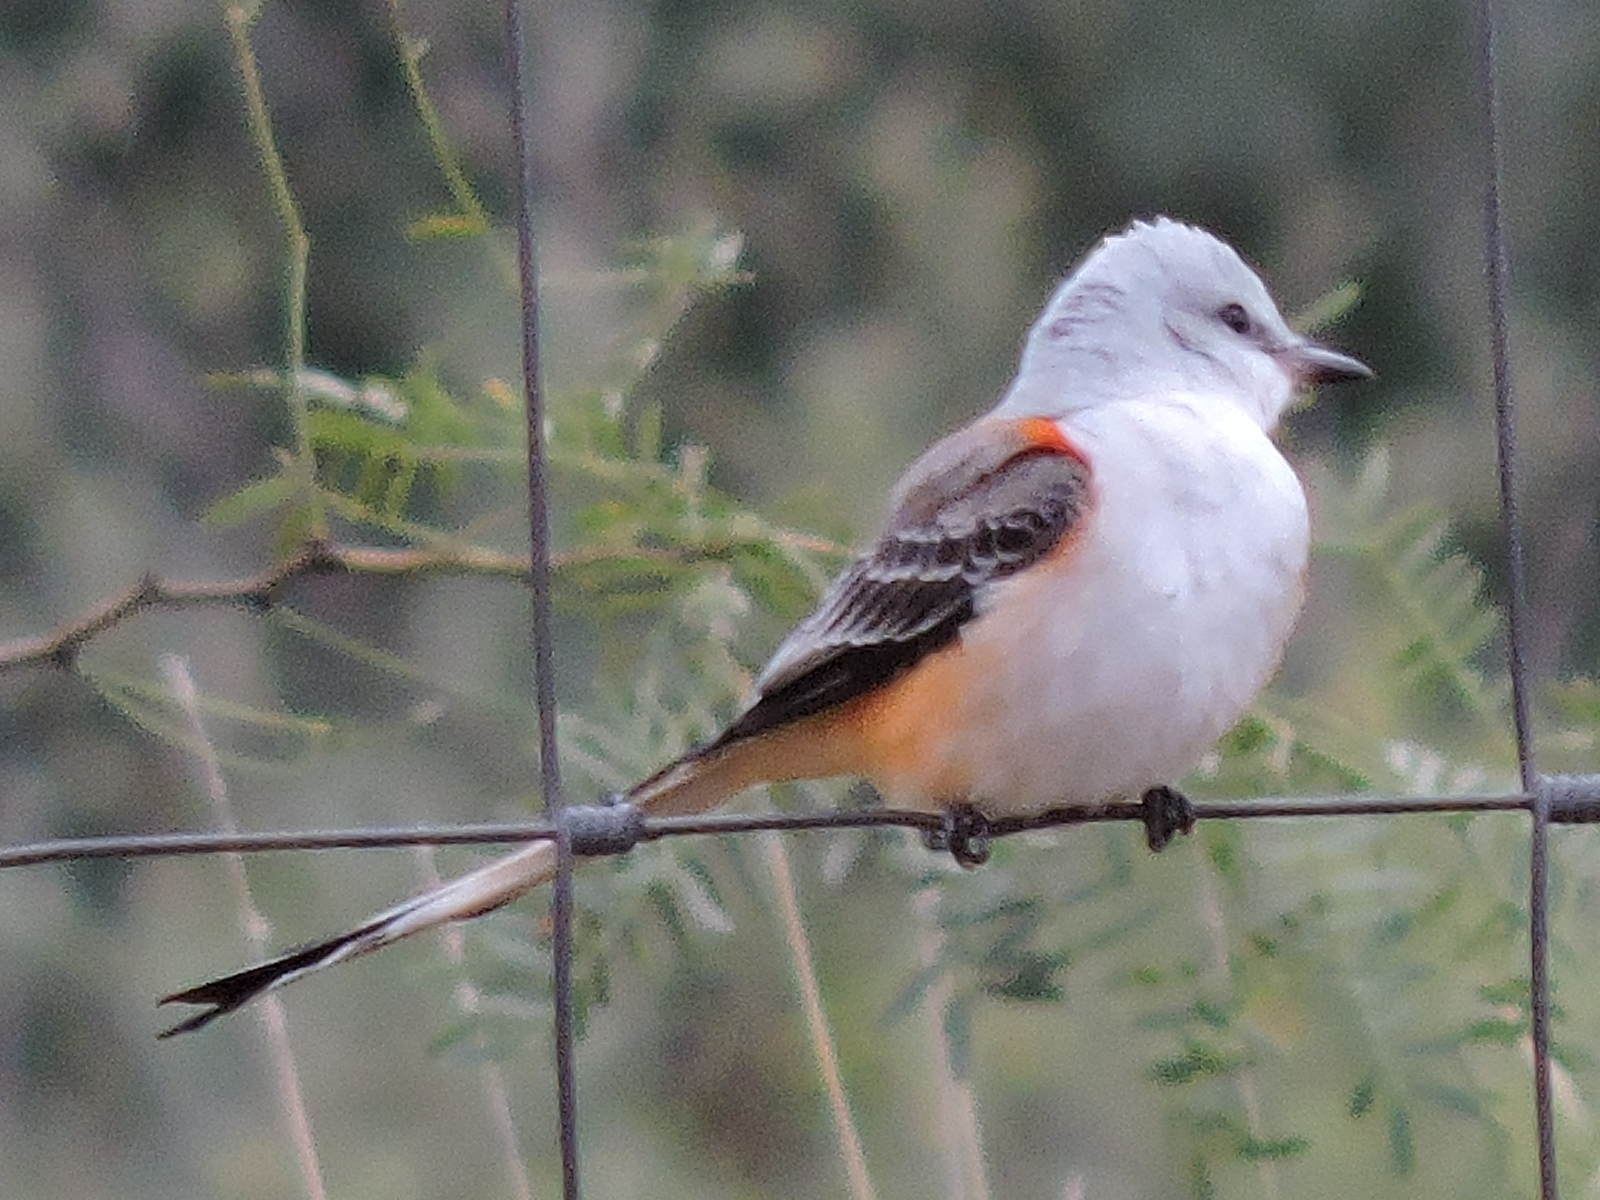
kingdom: Animalia
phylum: Chordata
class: Aves
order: Passeriformes
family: Tyrannidae
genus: Tyrannus
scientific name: Tyrannus forficatus
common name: Scissor-tailed flycatcher
